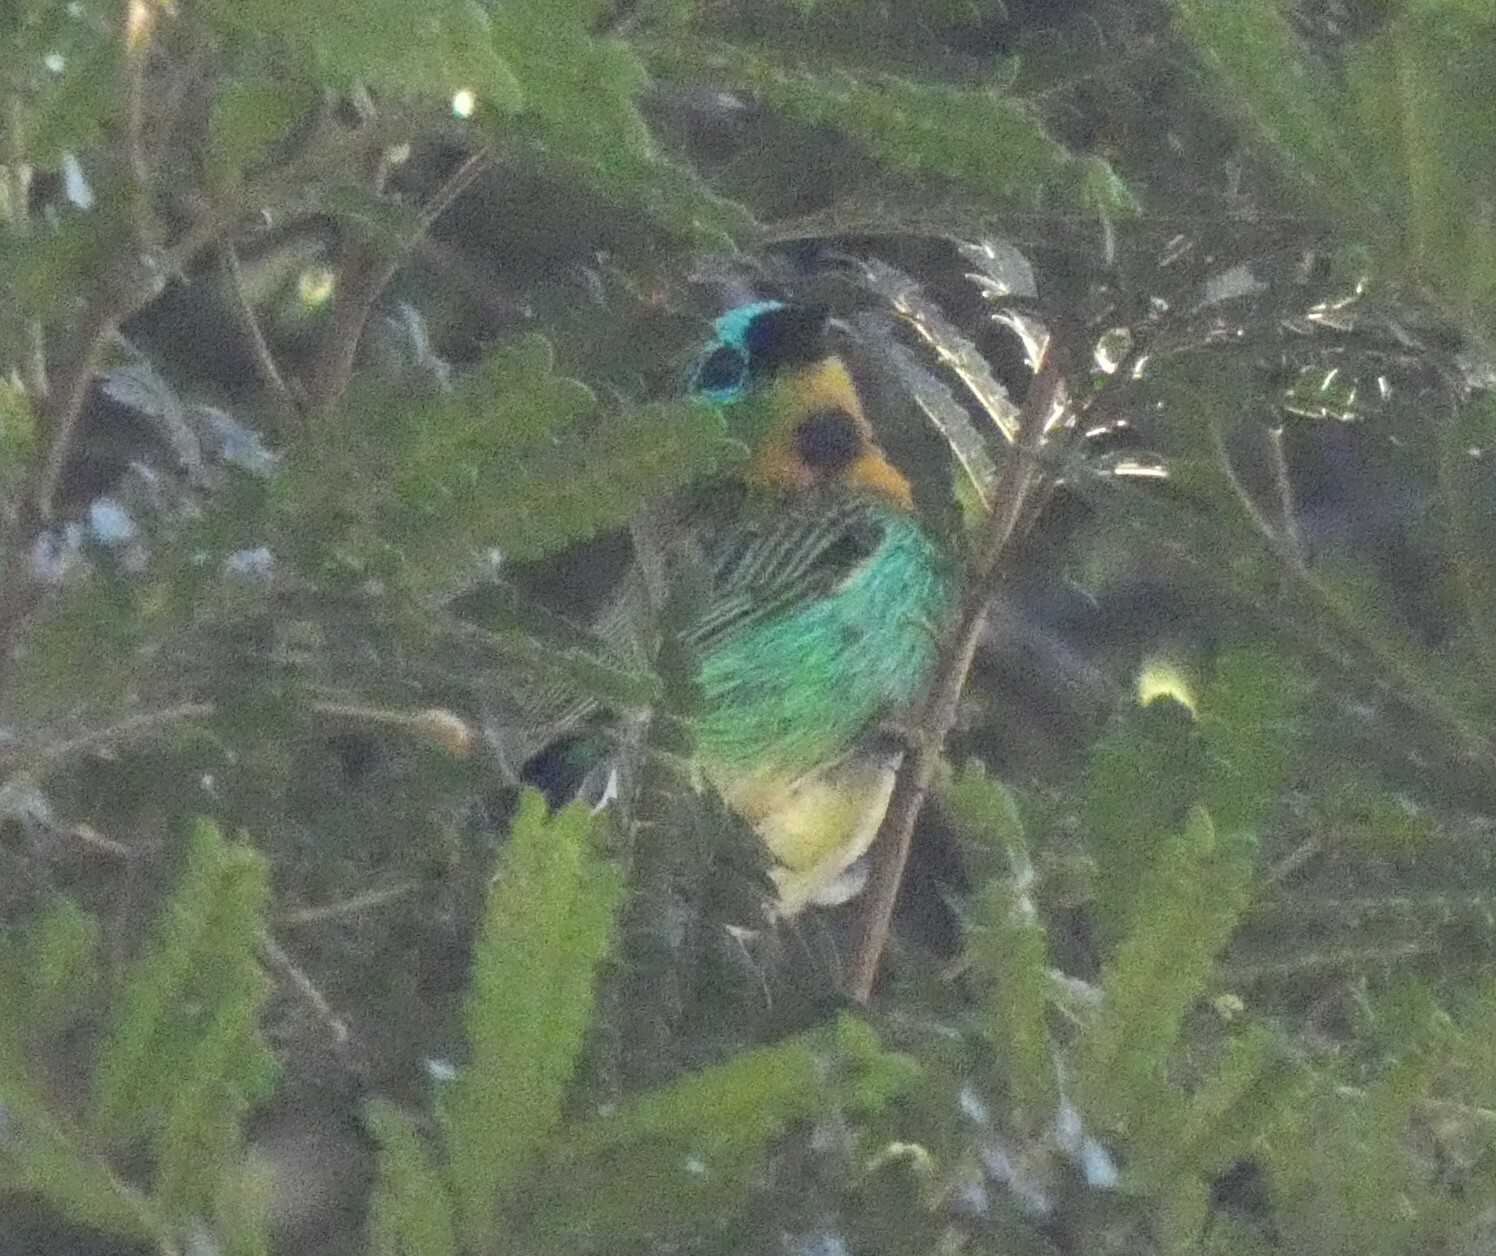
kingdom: Animalia
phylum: Chordata
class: Aves
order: Passeriformes
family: Thraupidae
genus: Tangara
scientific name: Tangara desmaresti
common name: Brassy-breasted tanager
